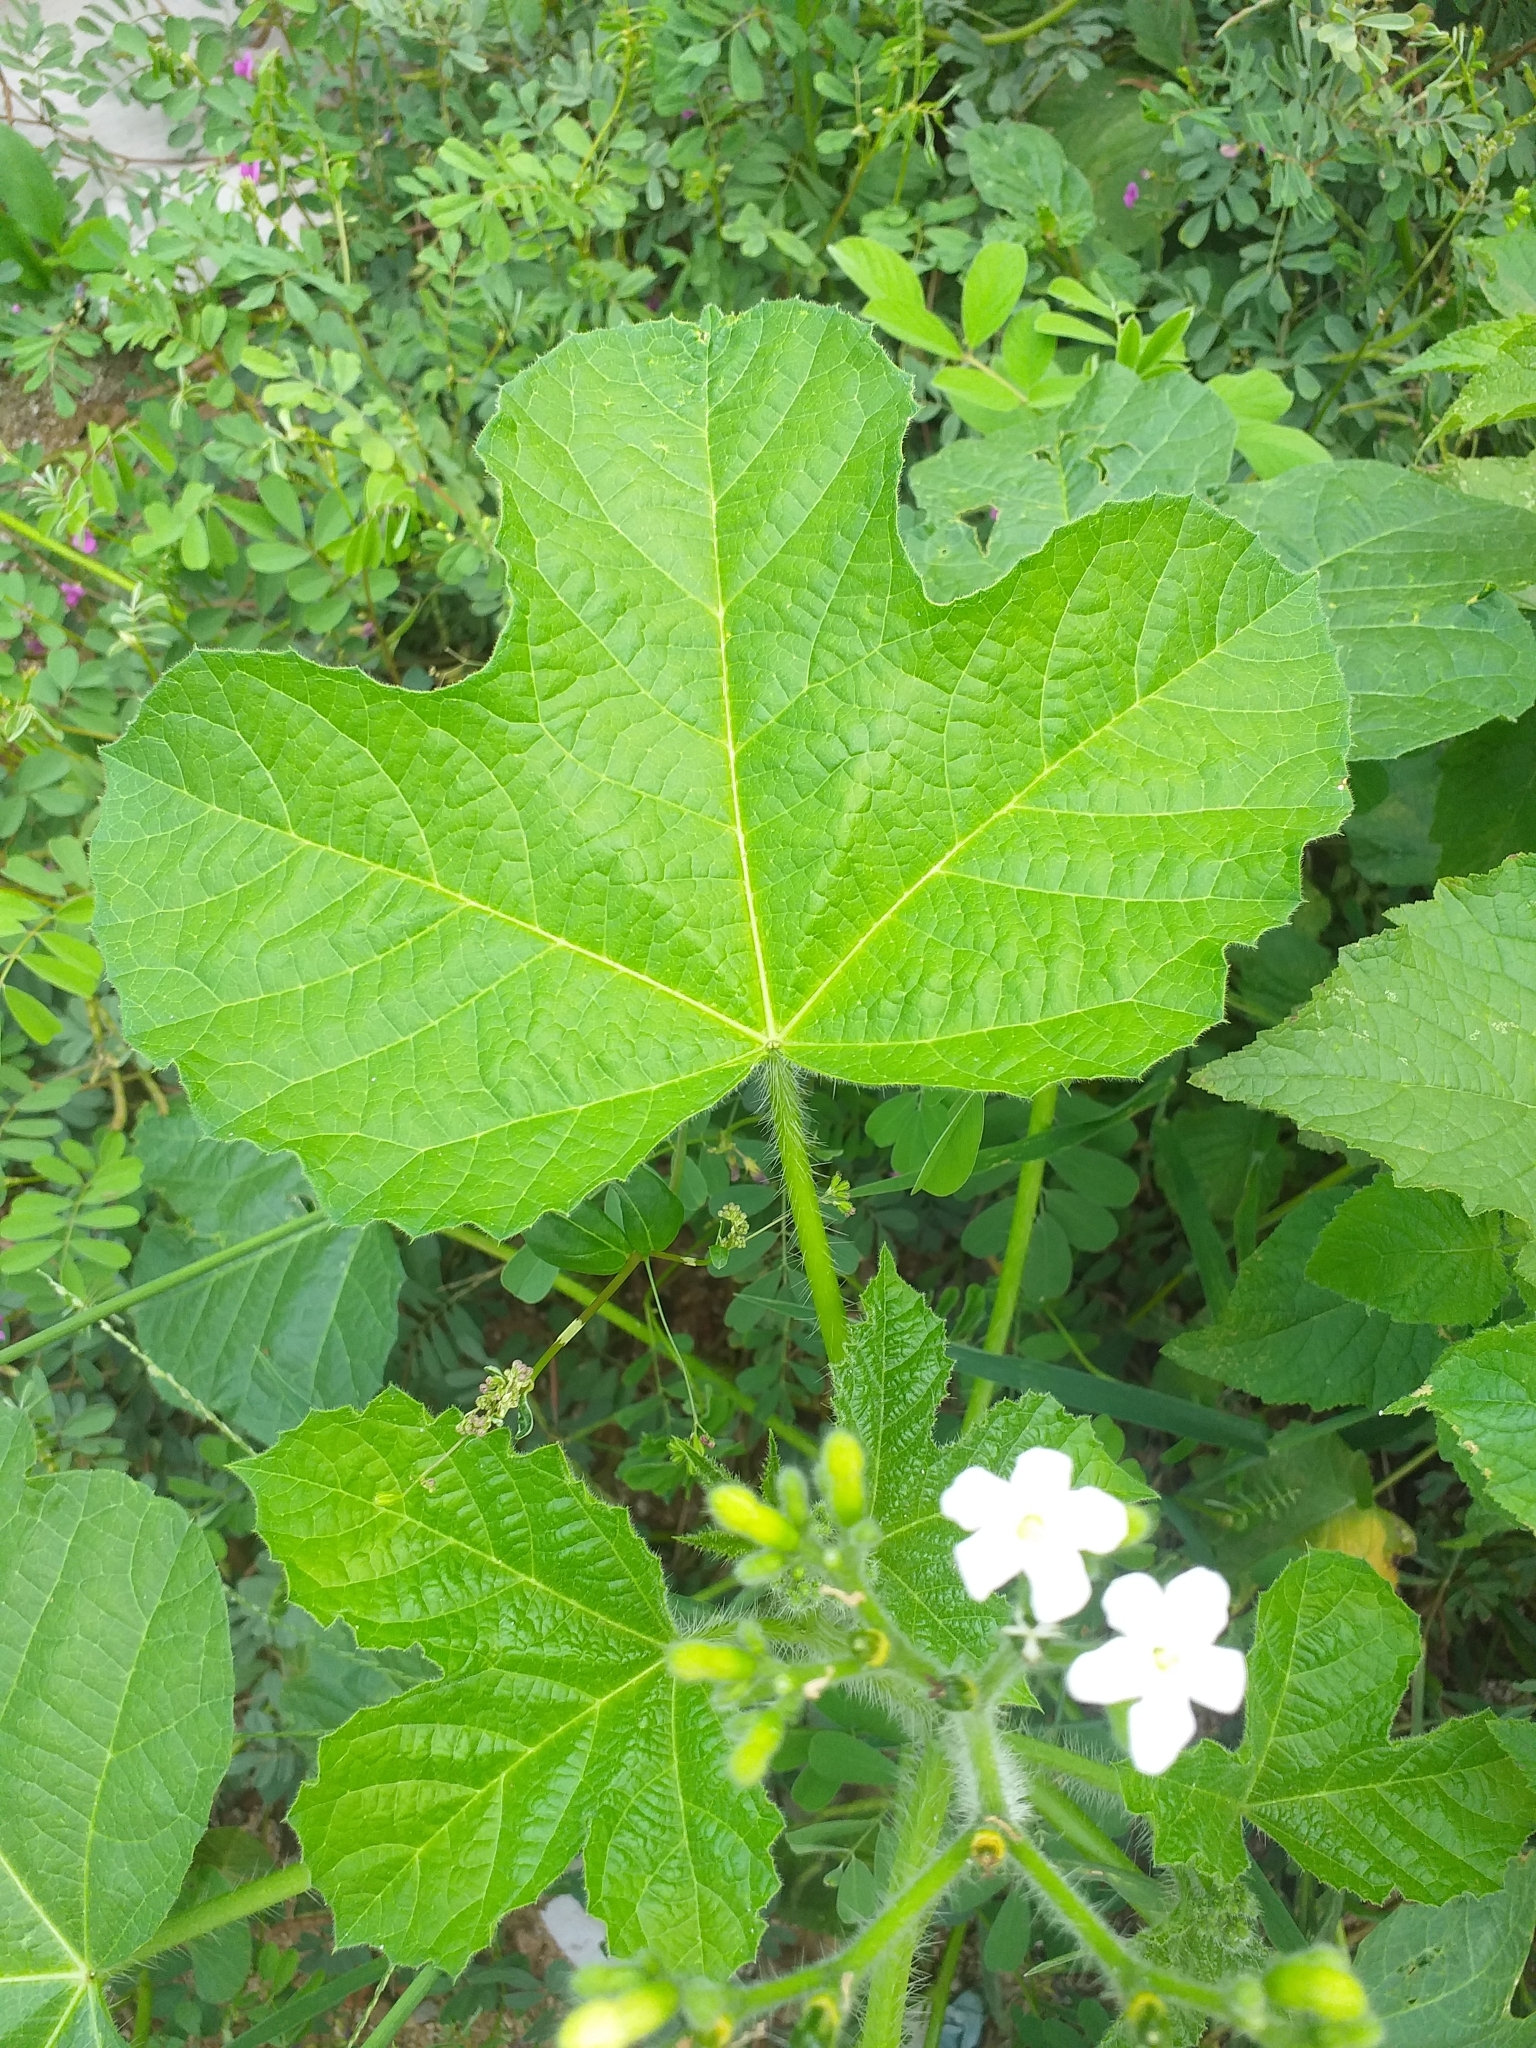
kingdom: Plantae
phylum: Tracheophyta
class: Magnoliopsida
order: Malpighiales
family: Euphorbiaceae
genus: Cnidoscolus
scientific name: Cnidoscolus urens
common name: Bull-nettle
